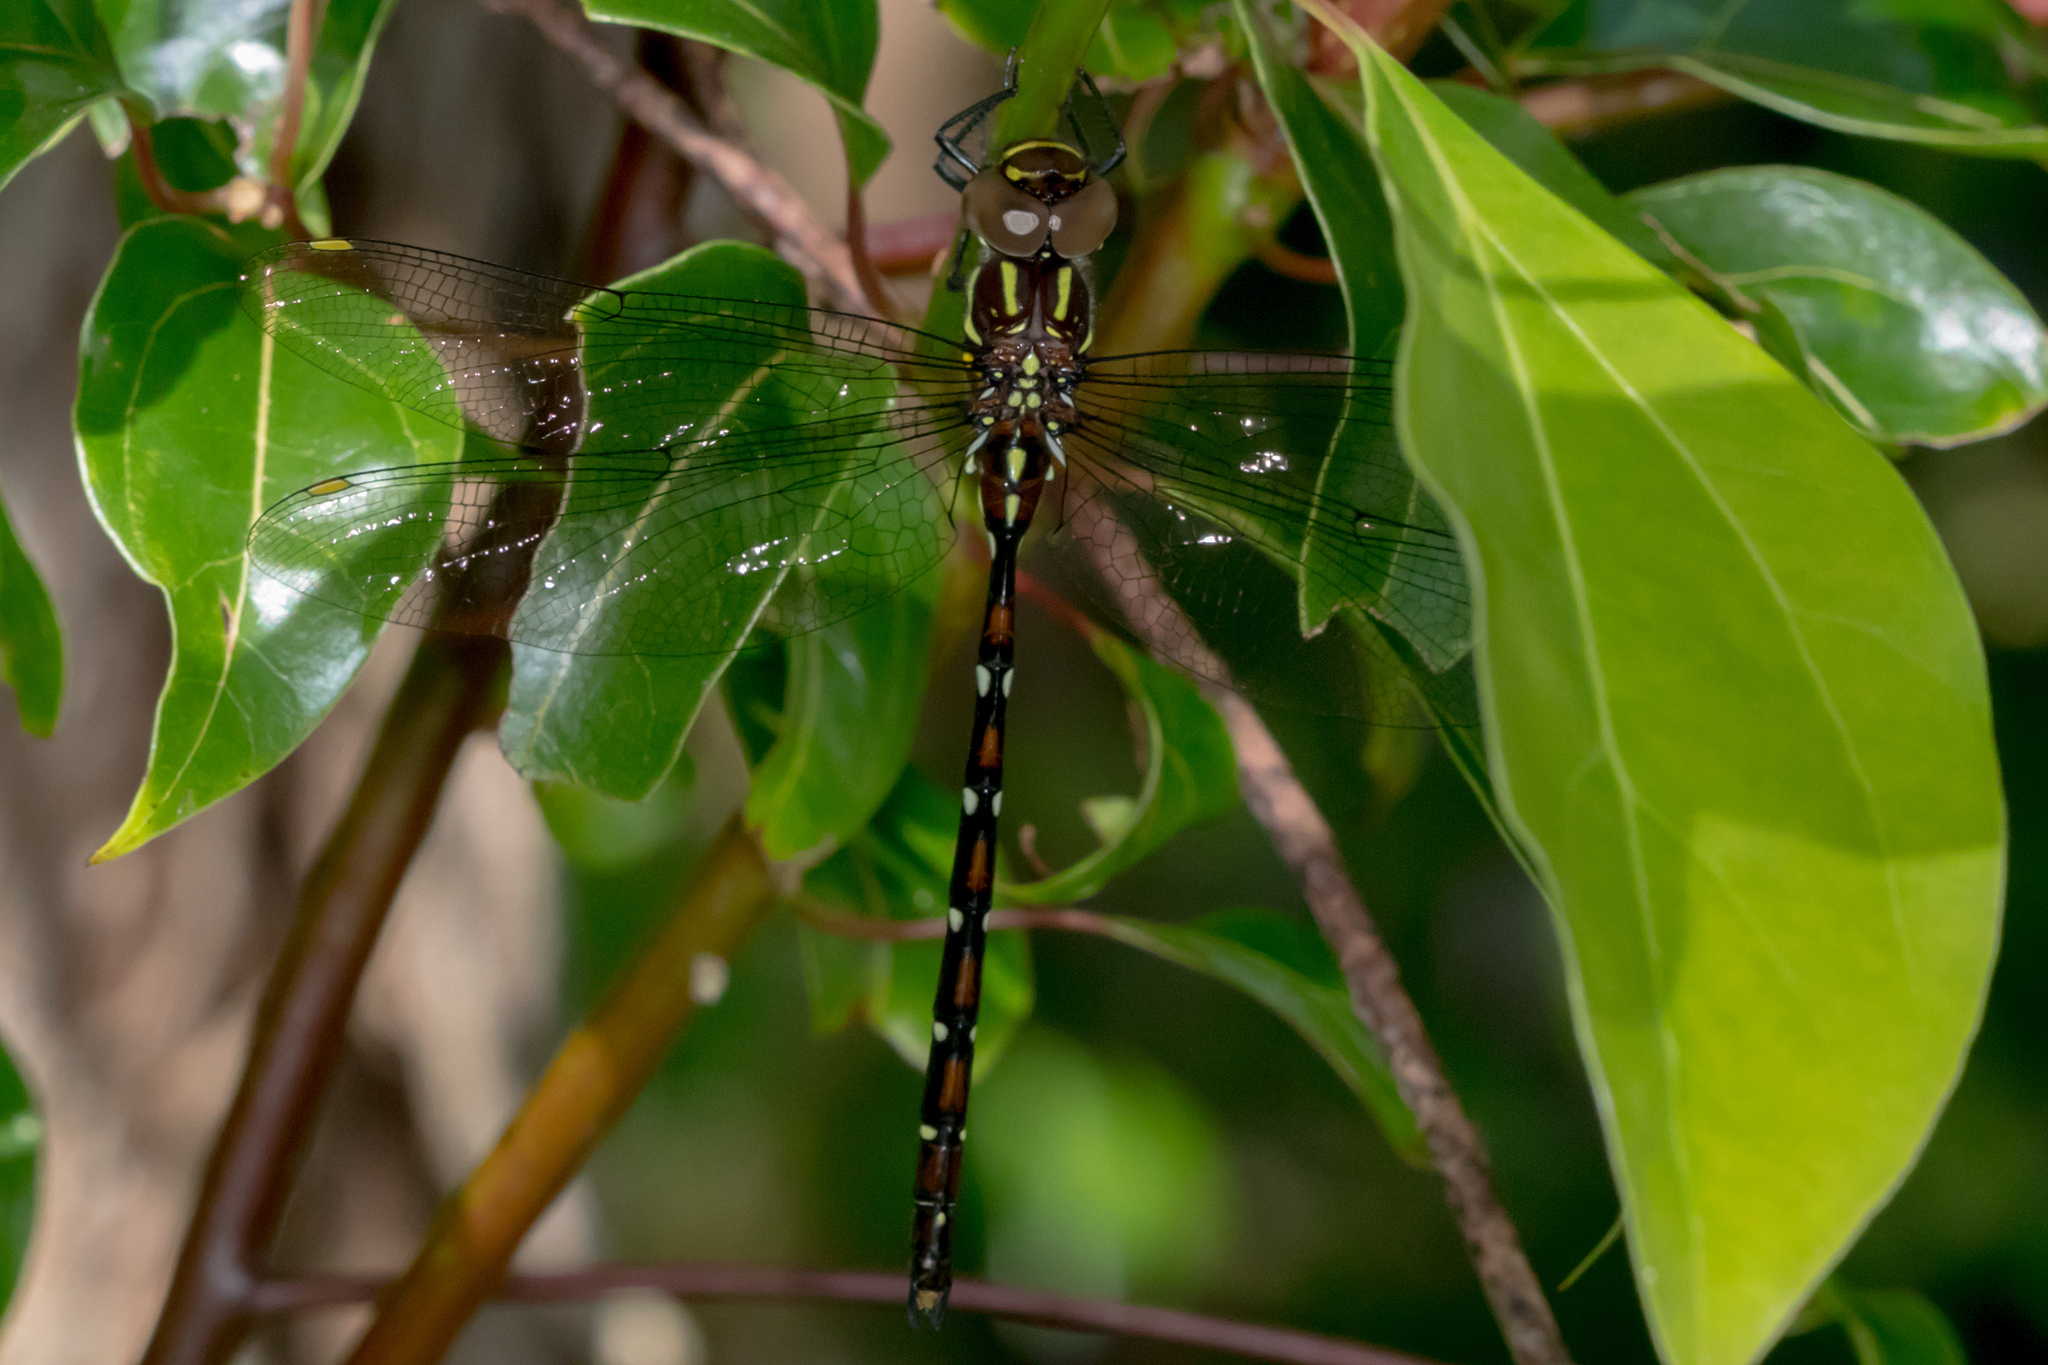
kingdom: Animalia
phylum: Arthropoda
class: Insecta
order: Odonata
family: Aeshnidae
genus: Austroaeschna
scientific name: Austroaeschna pulchra
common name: Forest darner
